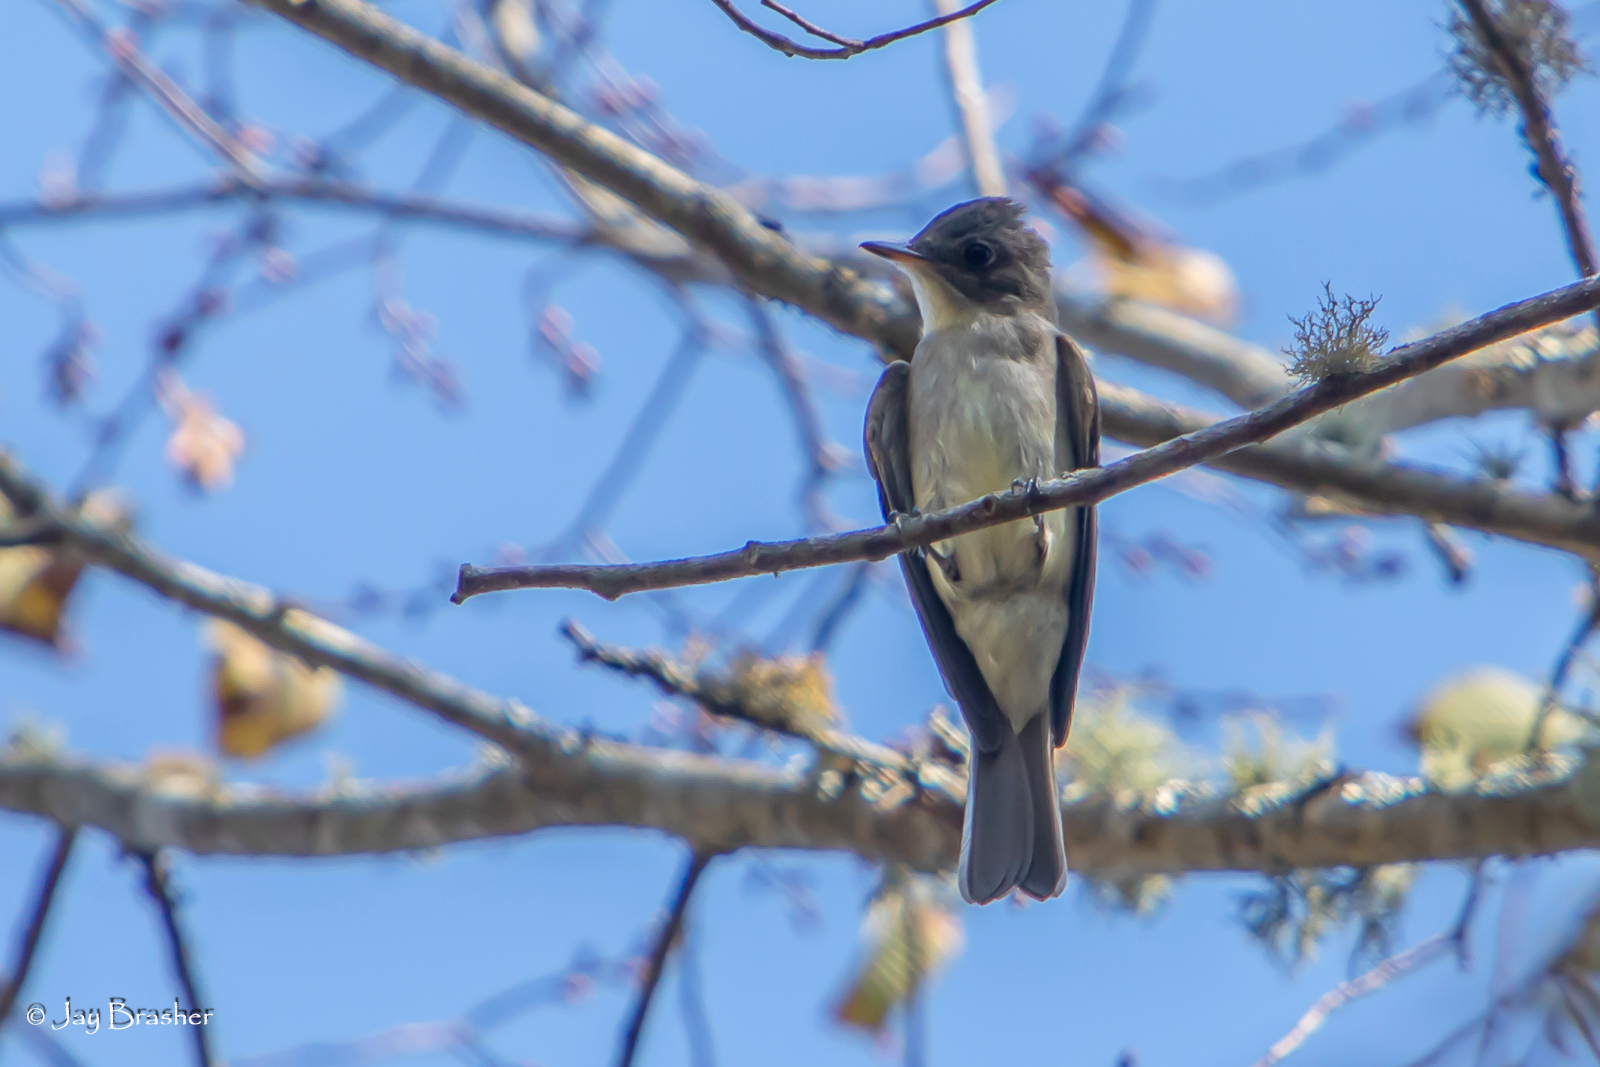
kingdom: Animalia
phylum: Chordata
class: Aves
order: Passeriformes
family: Tyrannidae
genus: Contopus
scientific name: Contopus virens
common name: Eastern wood-pewee
